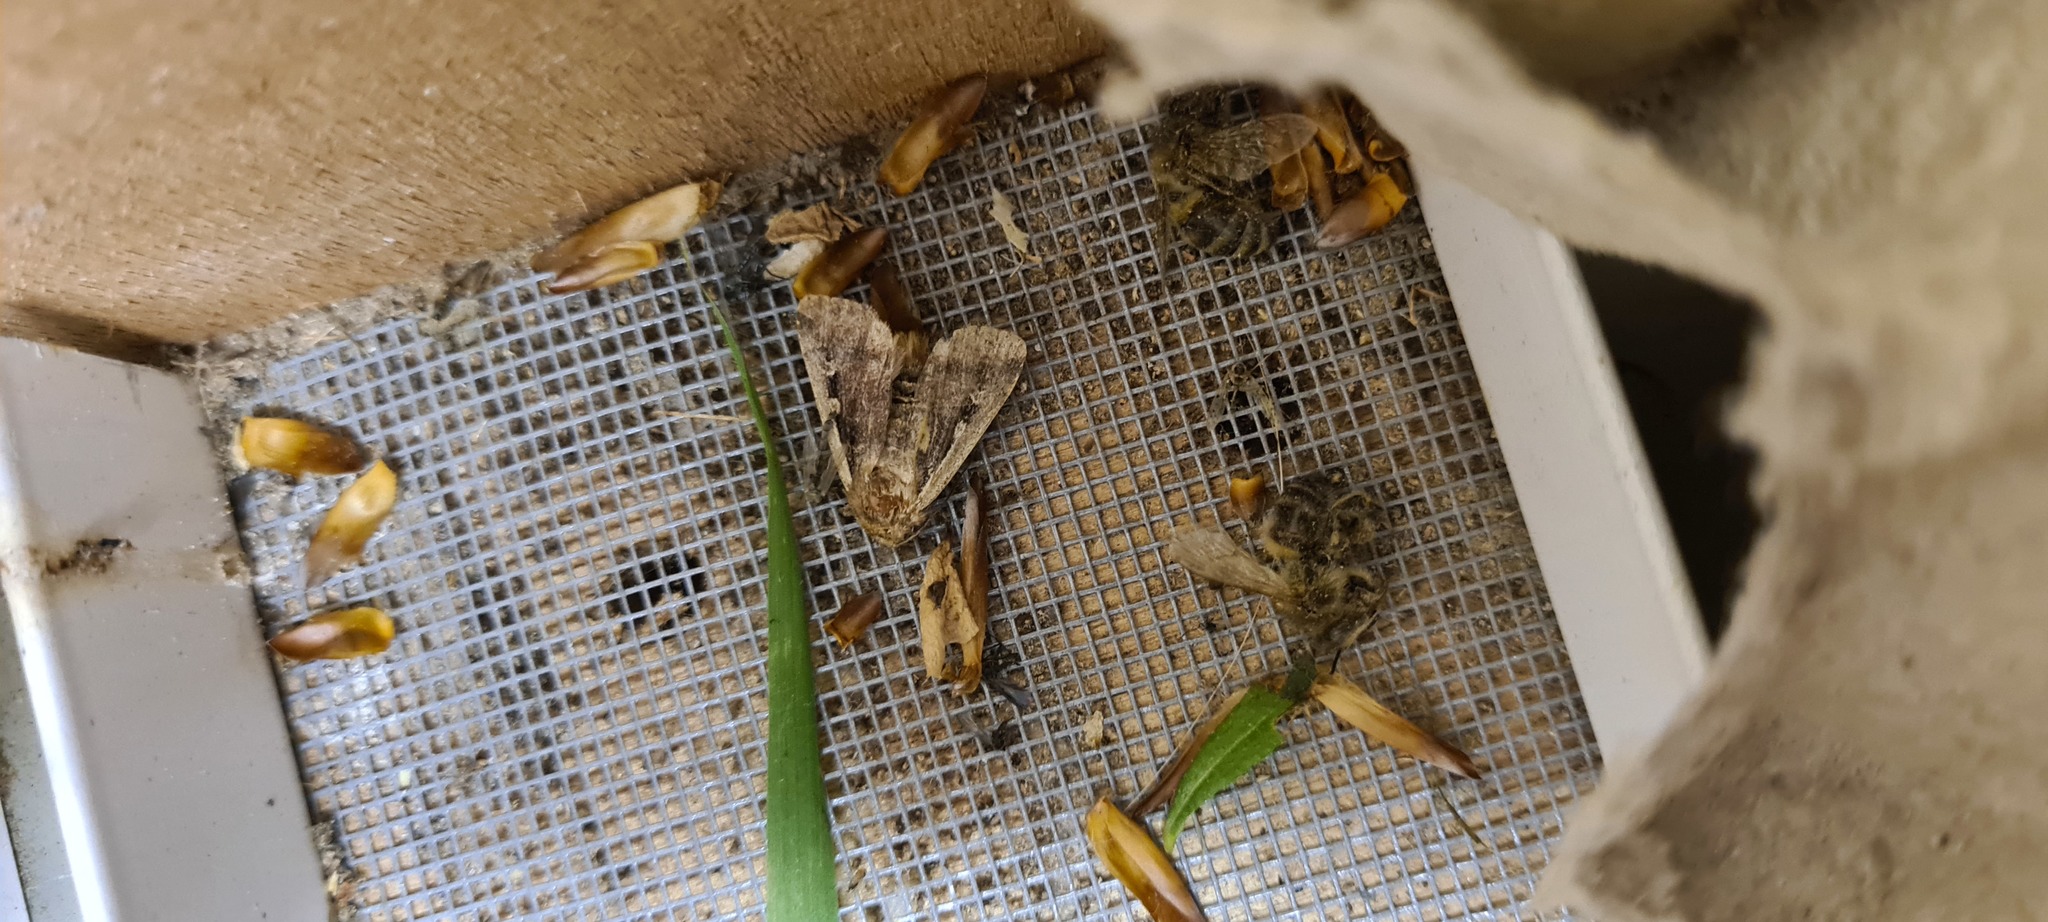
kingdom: Animalia
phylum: Arthropoda
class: Insecta
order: Lepidoptera
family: Noctuidae
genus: Ochropleura
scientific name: Ochropleura plecta
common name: Flame shoulder
